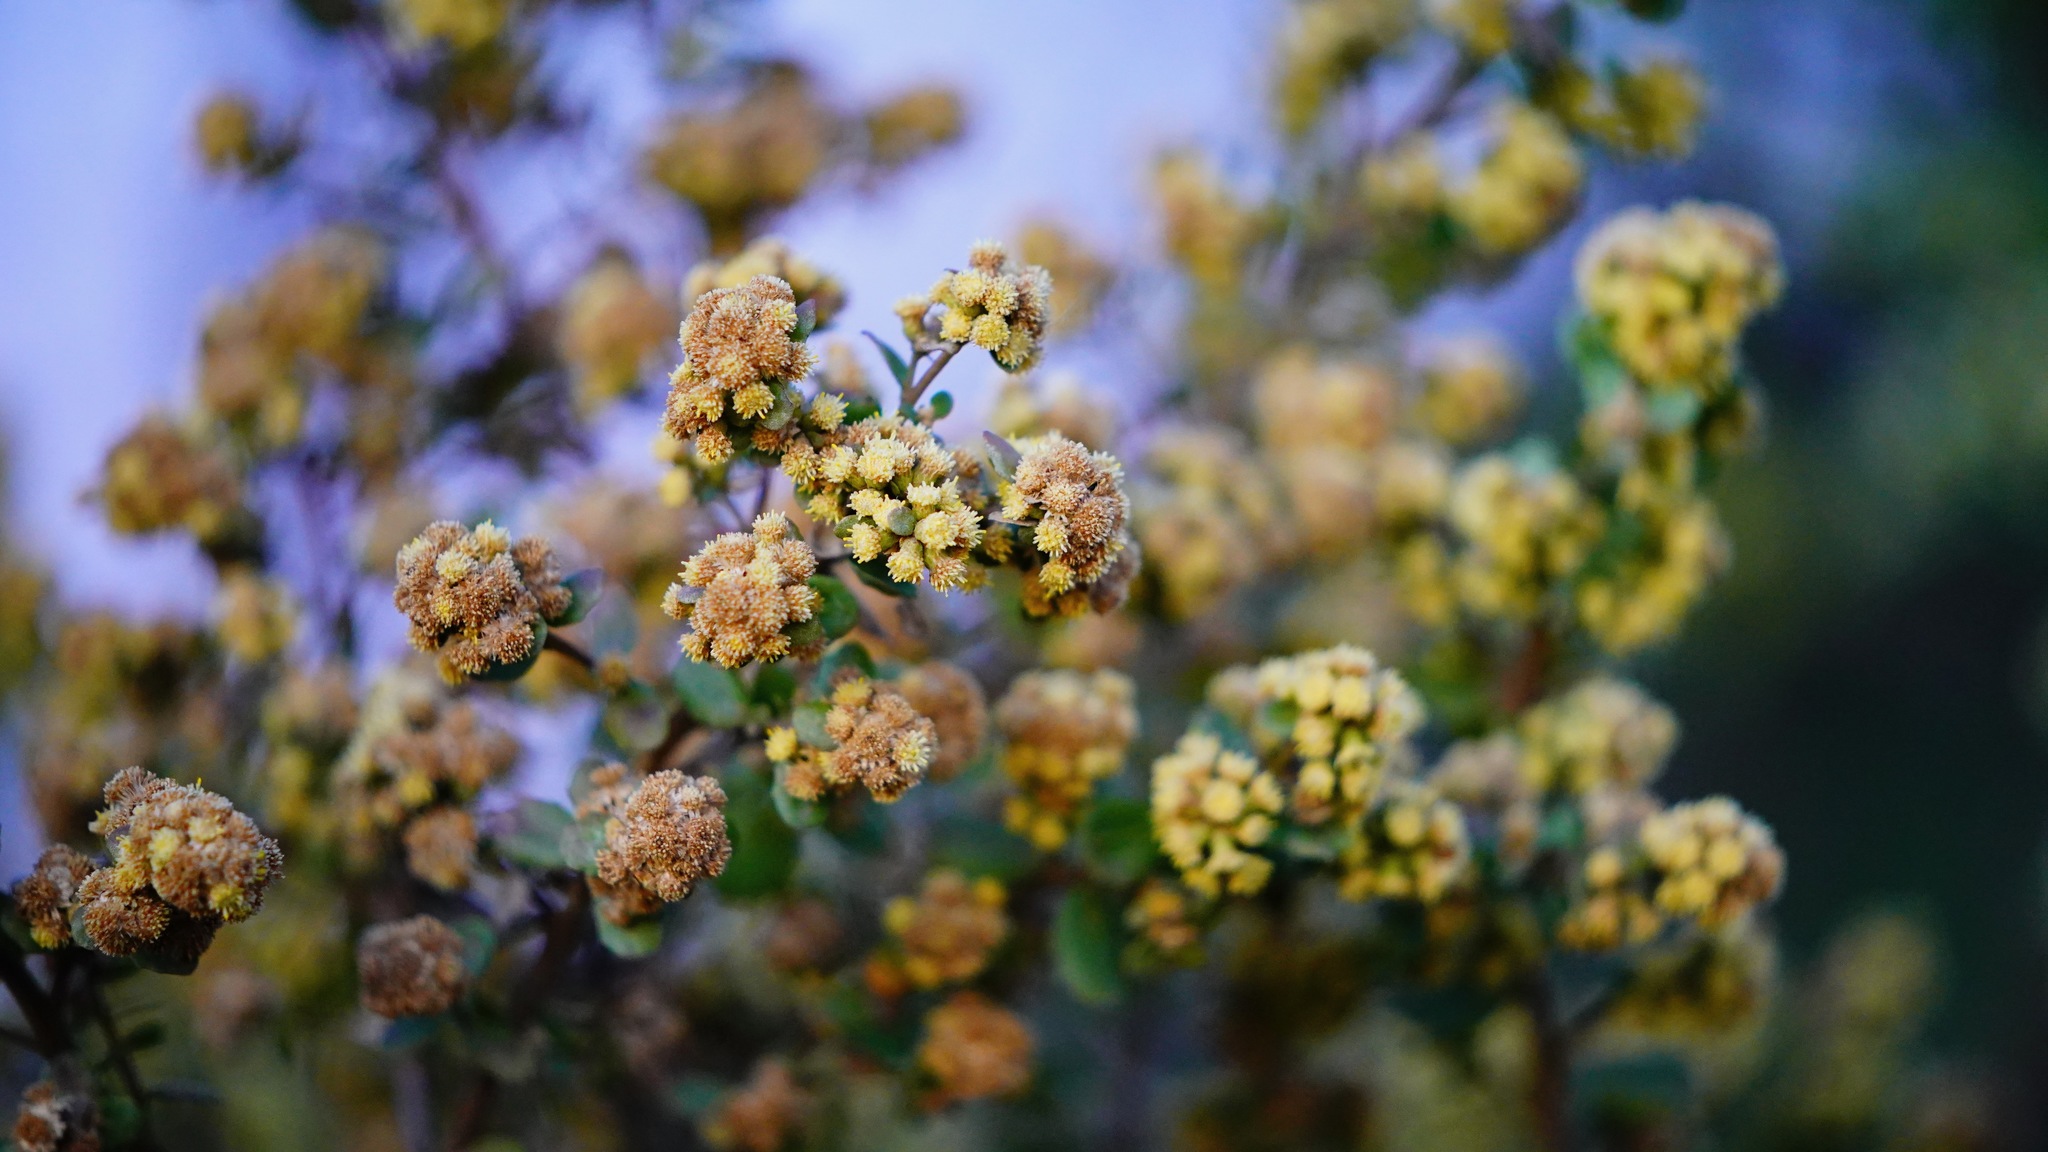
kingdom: Plantae
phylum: Tracheophyta
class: Magnoliopsida
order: Asterales
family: Asteraceae
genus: Baccharis
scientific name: Baccharis pilularis
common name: Coyotebrush
